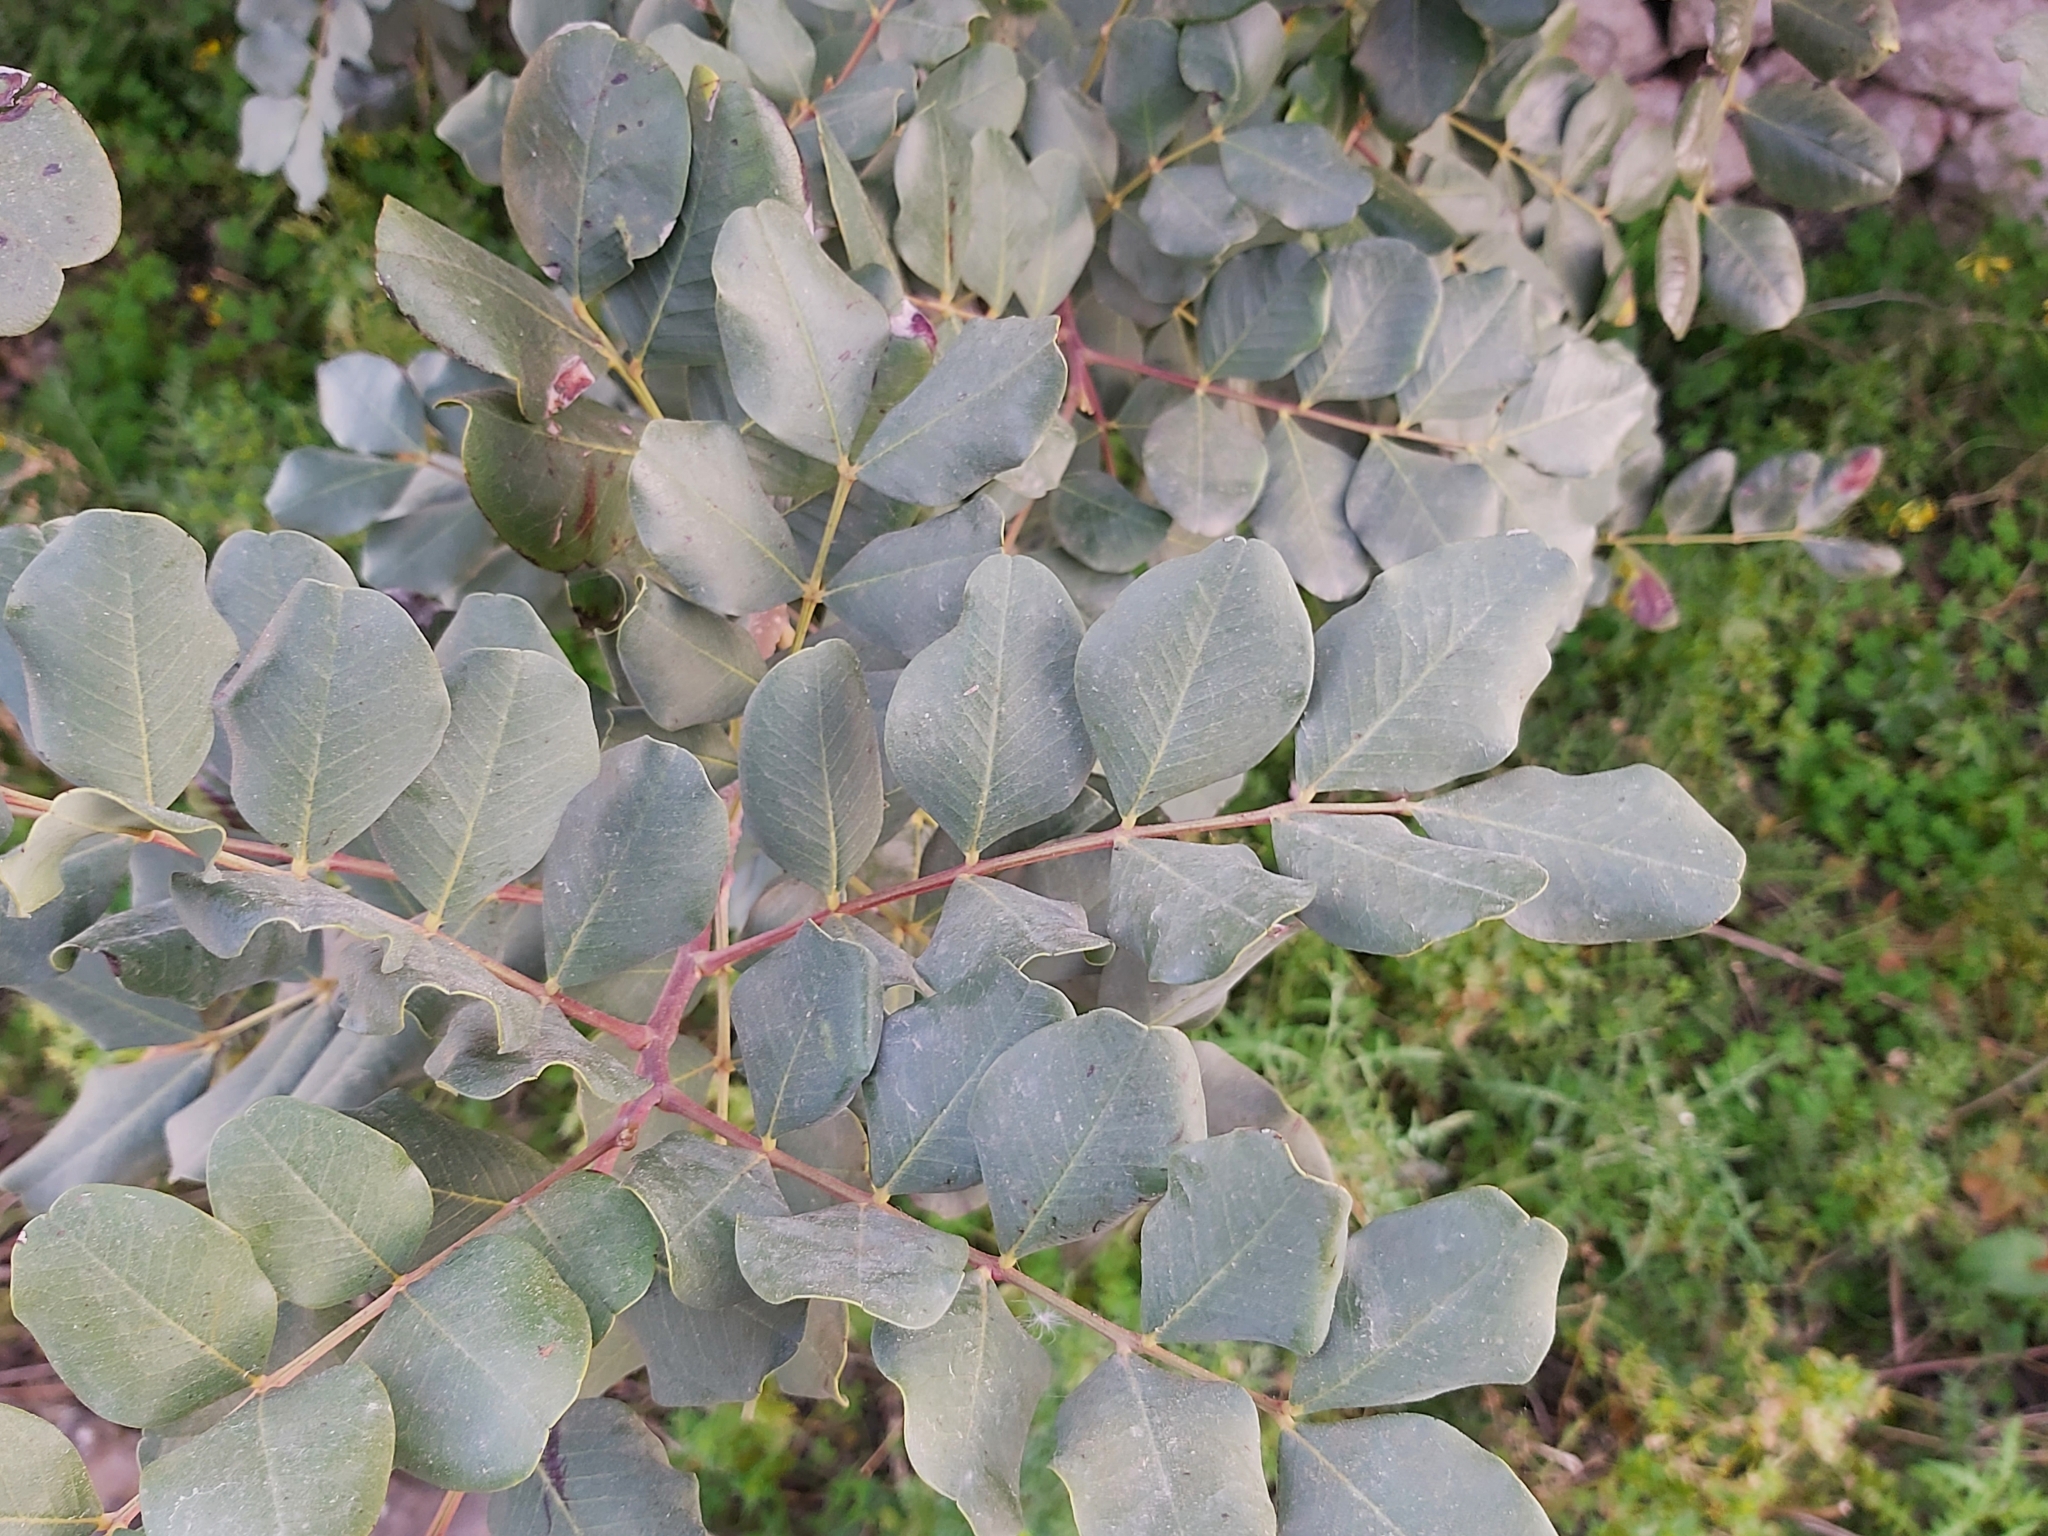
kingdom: Plantae
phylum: Tracheophyta
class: Magnoliopsida
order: Fabales
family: Fabaceae
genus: Ceratonia
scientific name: Ceratonia siliqua
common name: Carob
